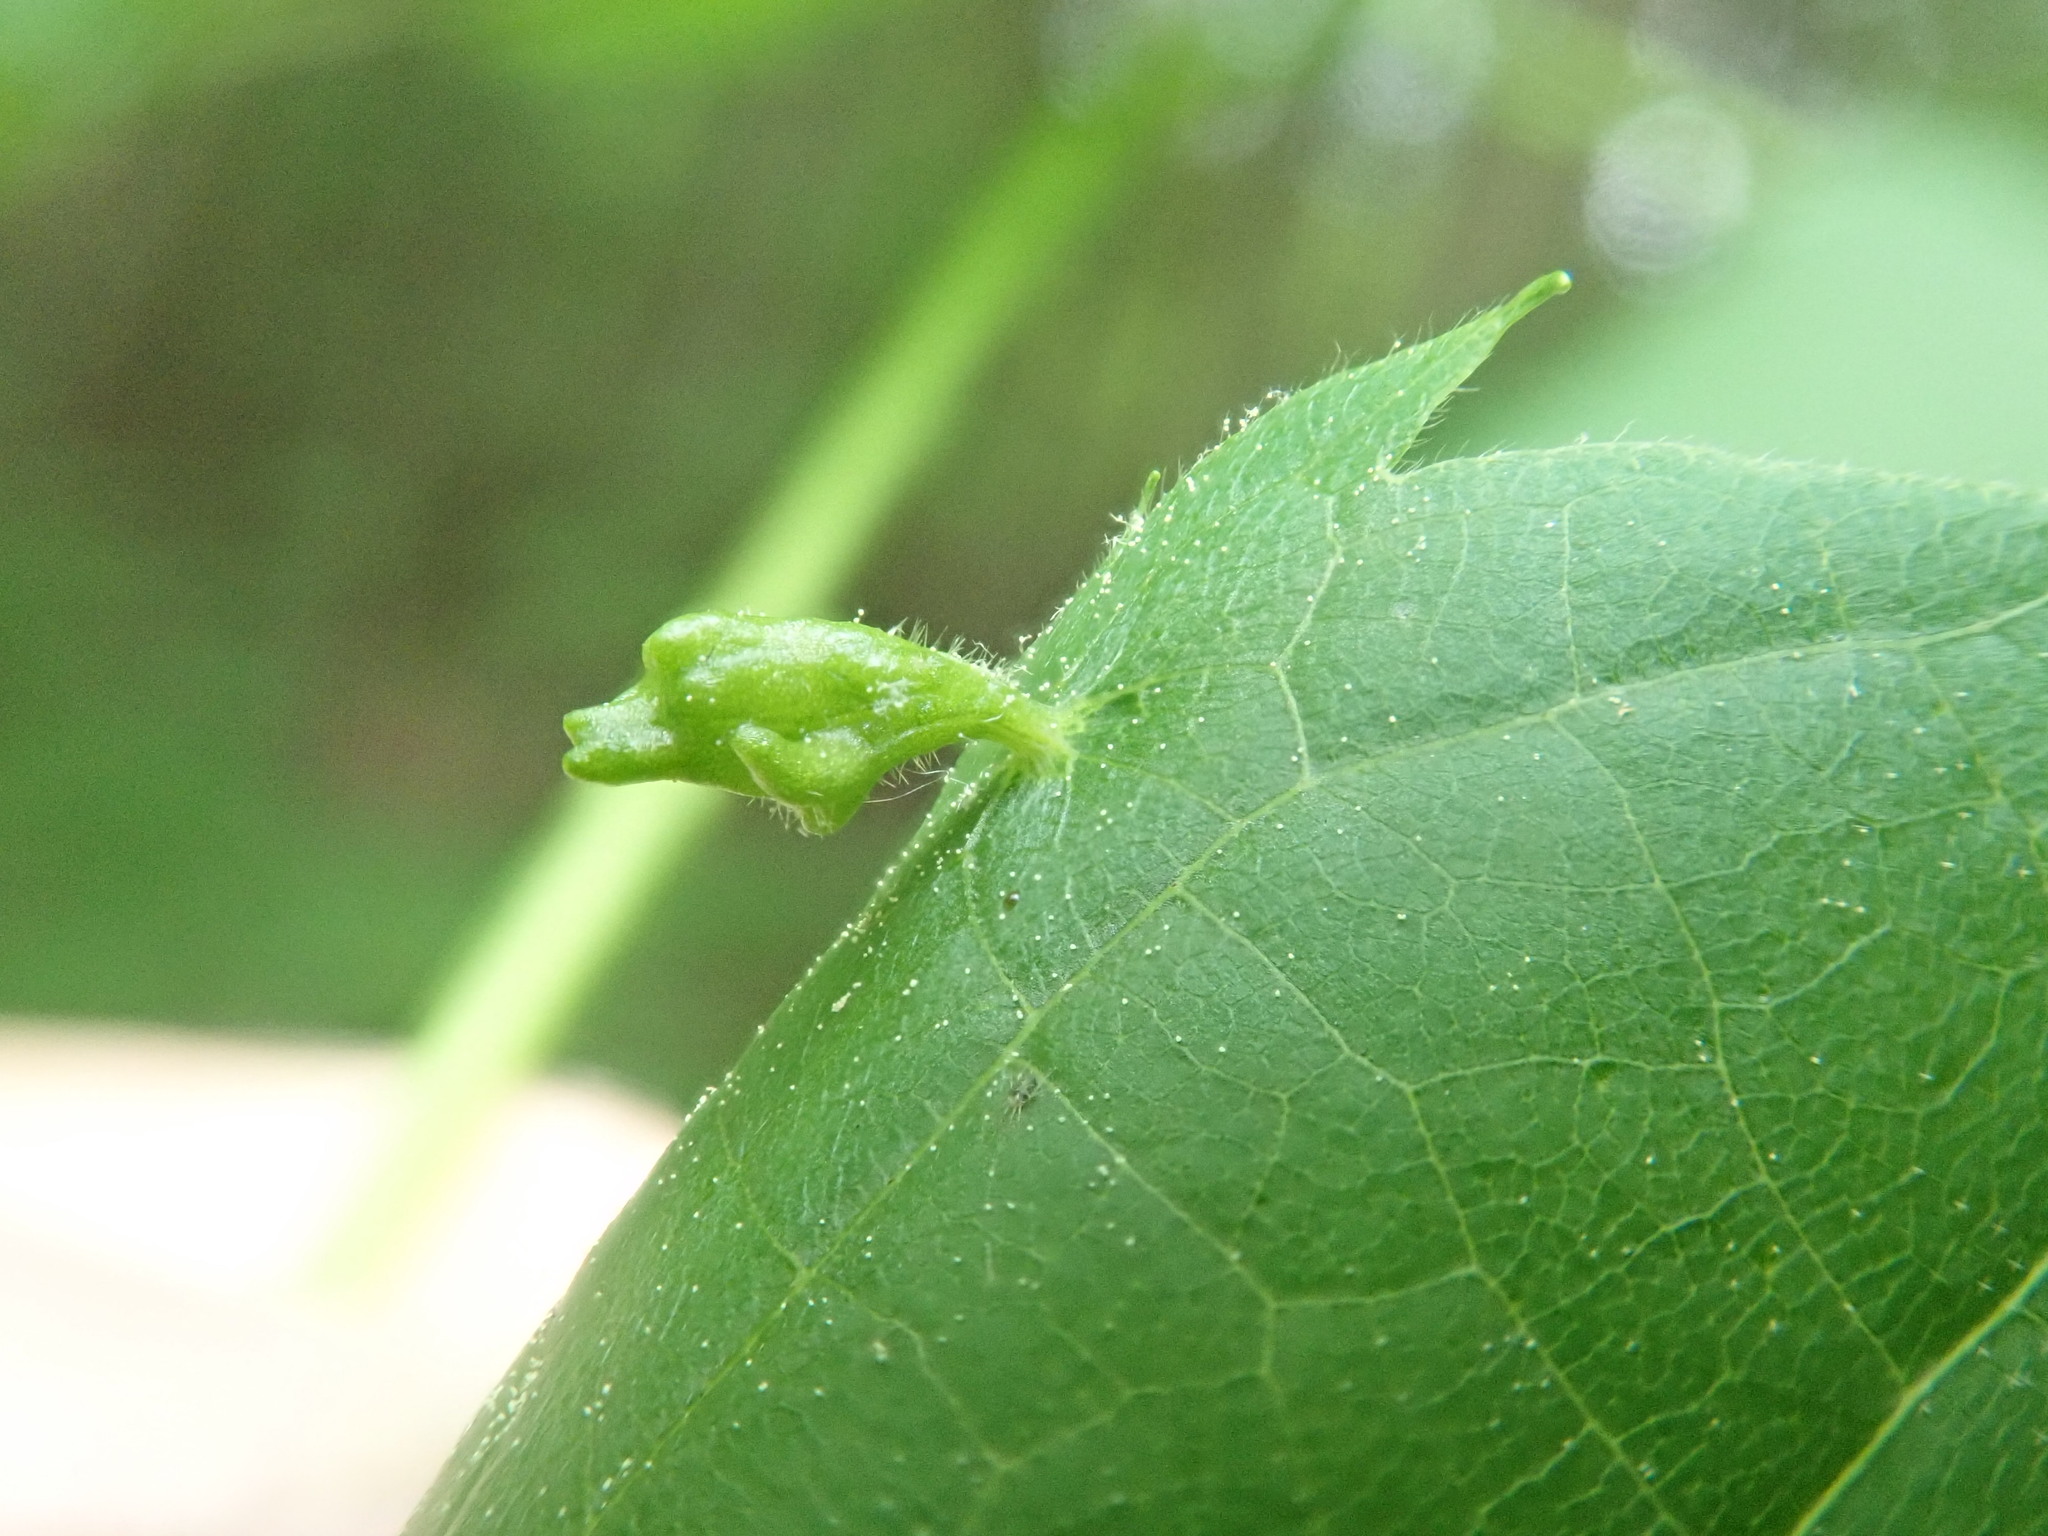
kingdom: Animalia
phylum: Arthropoda
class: Arachnida
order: Trombidiformes
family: Eriophyidae
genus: Eriophyes
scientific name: Eriophyes tiliae
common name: Red nail gall mite
